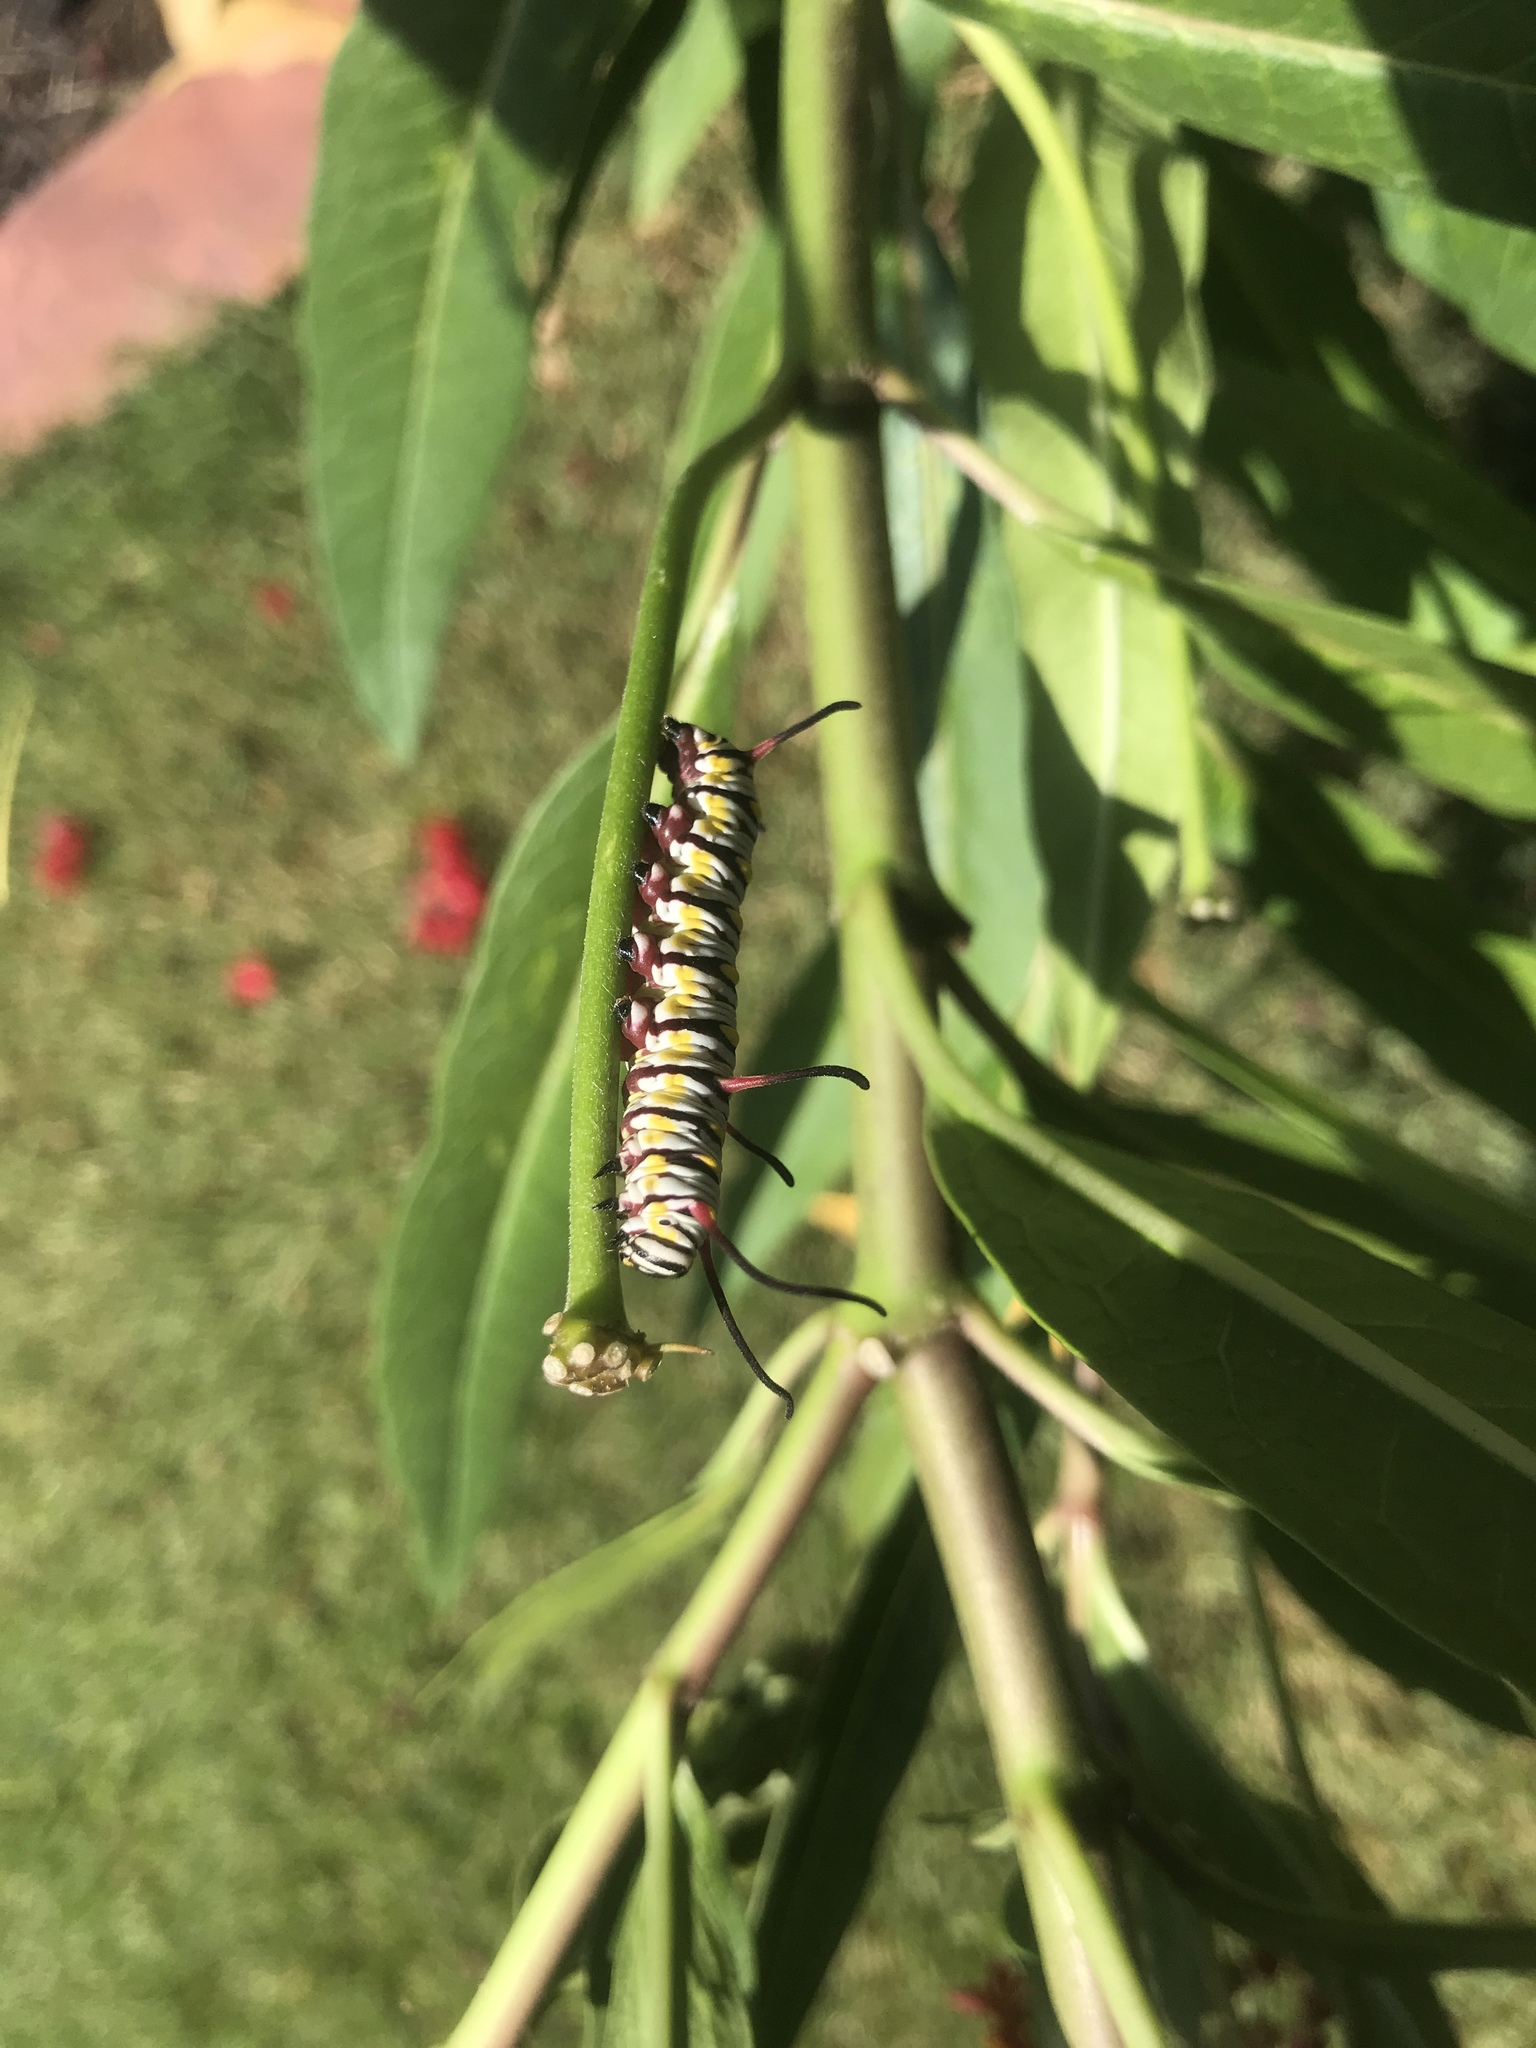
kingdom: Animalia
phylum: Arthropoda
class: Insecta
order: Lepidoptera
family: Nymphalidae
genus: Danaus
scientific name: Danaus gilippus
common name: Queen
